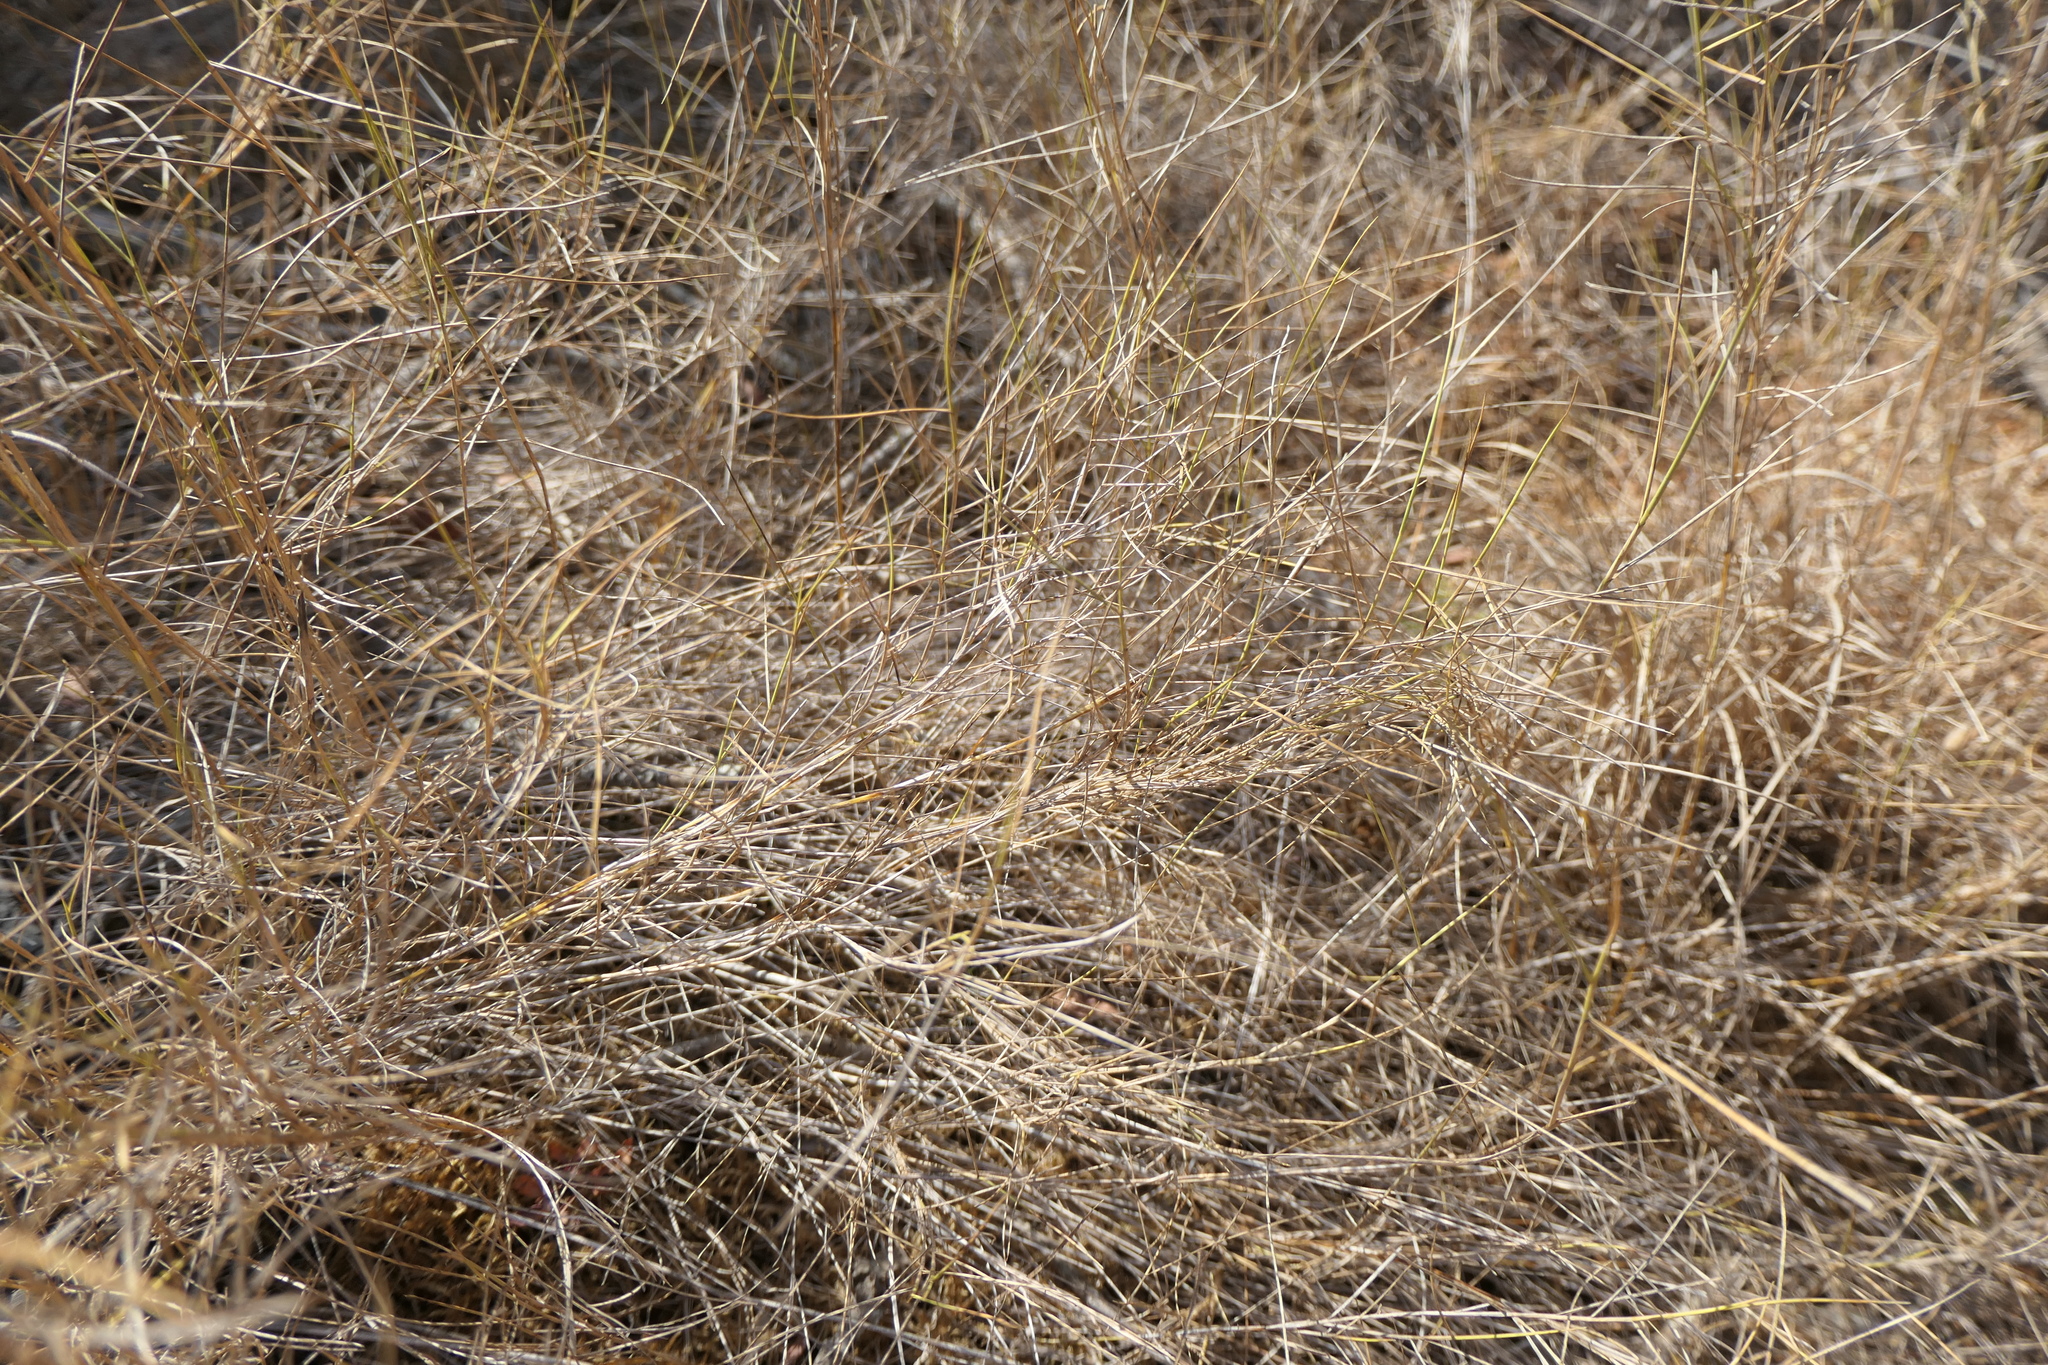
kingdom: Plantae
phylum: Tracheophyta
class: Liliopsida
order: Poales
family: Poaceae
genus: Brachypodium
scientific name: Brachypodium retusum
